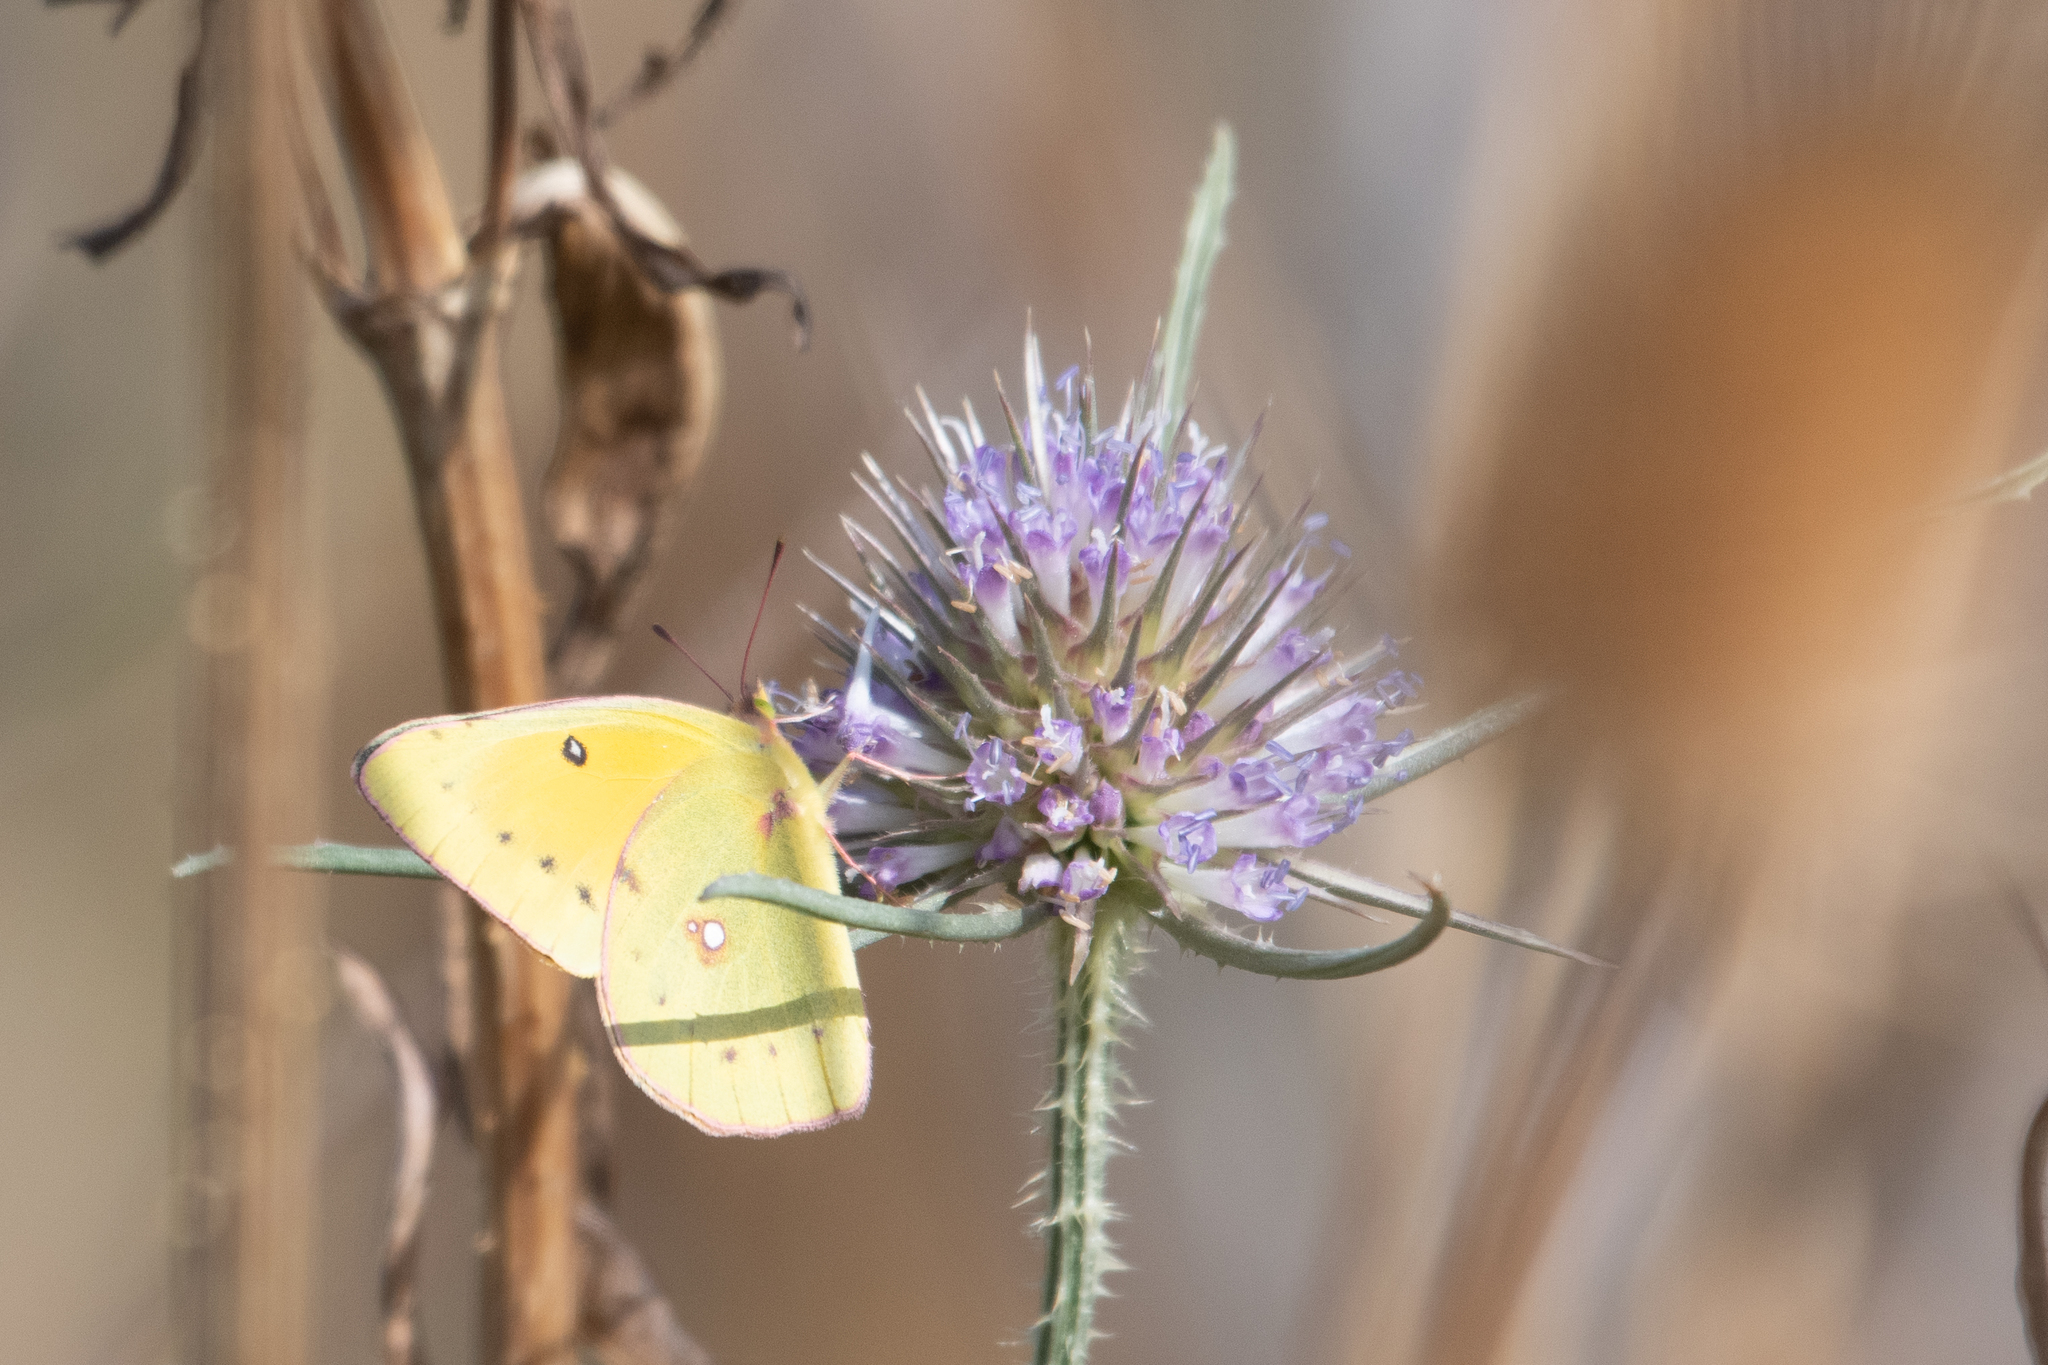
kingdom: Animalia
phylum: Arthropoda
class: Insecta
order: Lepidoptera
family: Pieridae
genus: Colias
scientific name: Colias eurytheme
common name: Alfalfa butterfly
